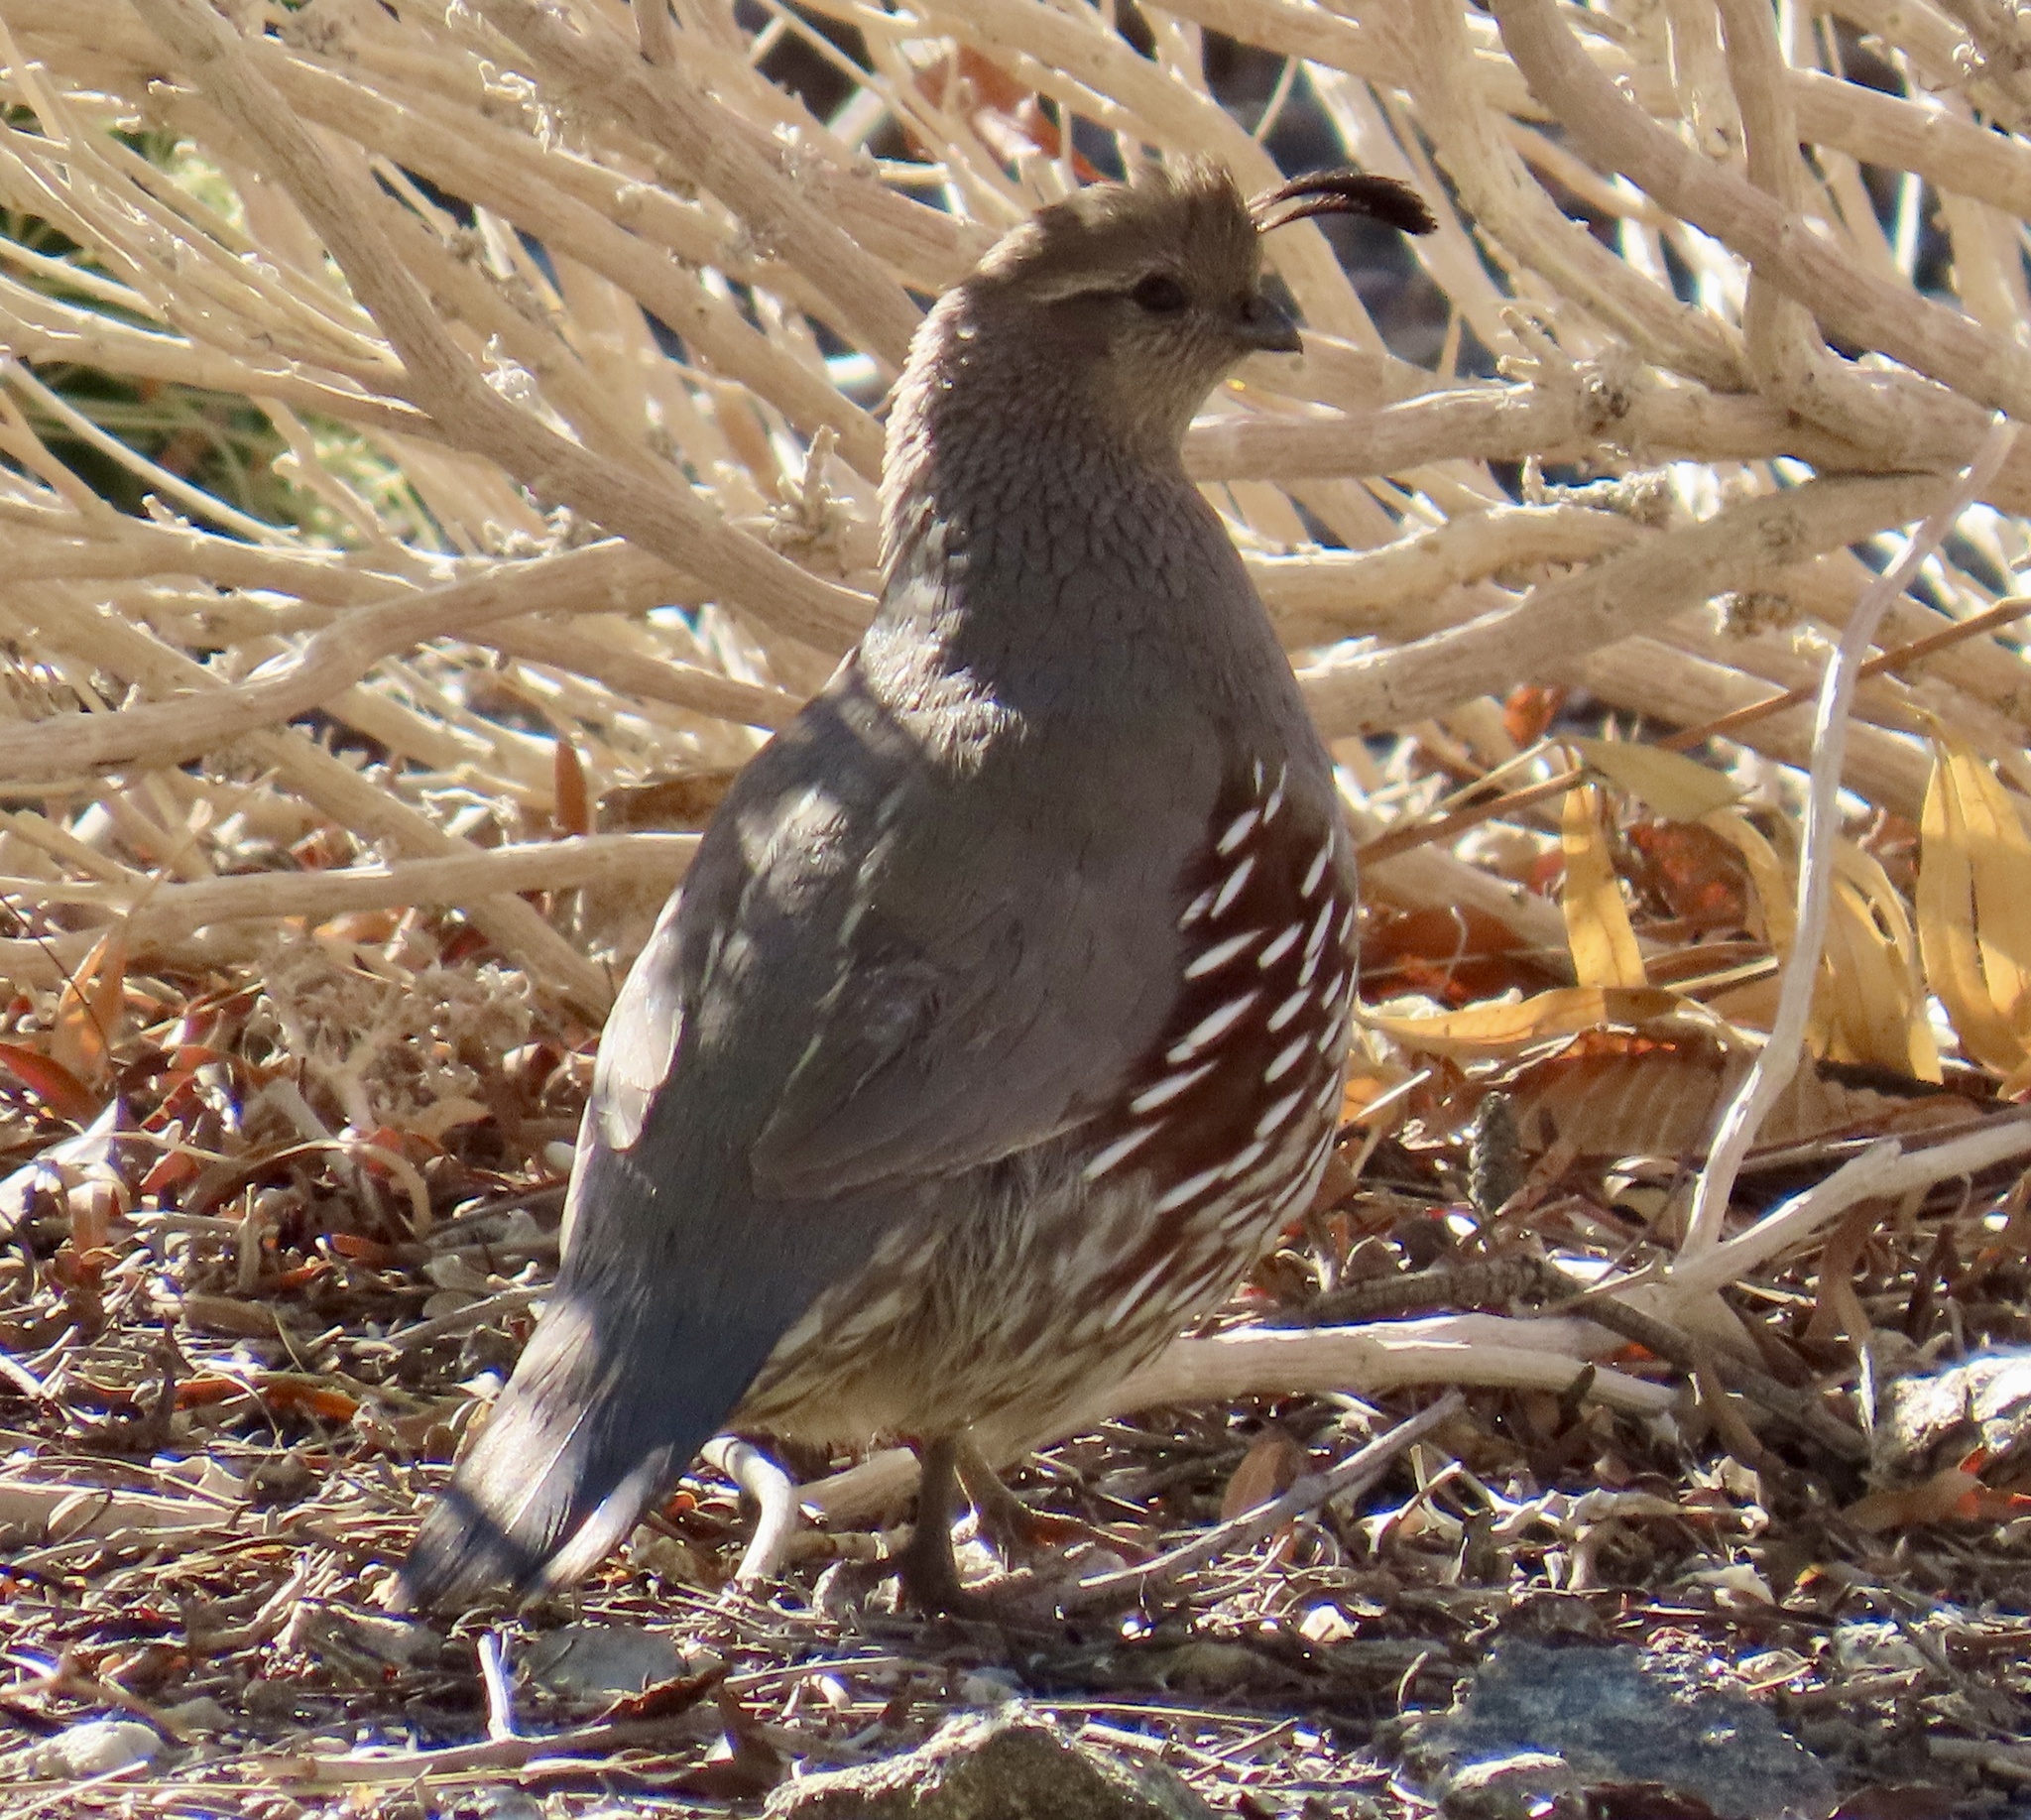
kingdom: Animalia
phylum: Chordata
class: Aves
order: Galliformes
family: Odontophoridae
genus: Callipepla
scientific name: Callipepla gambelii
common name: Gambel's quail
